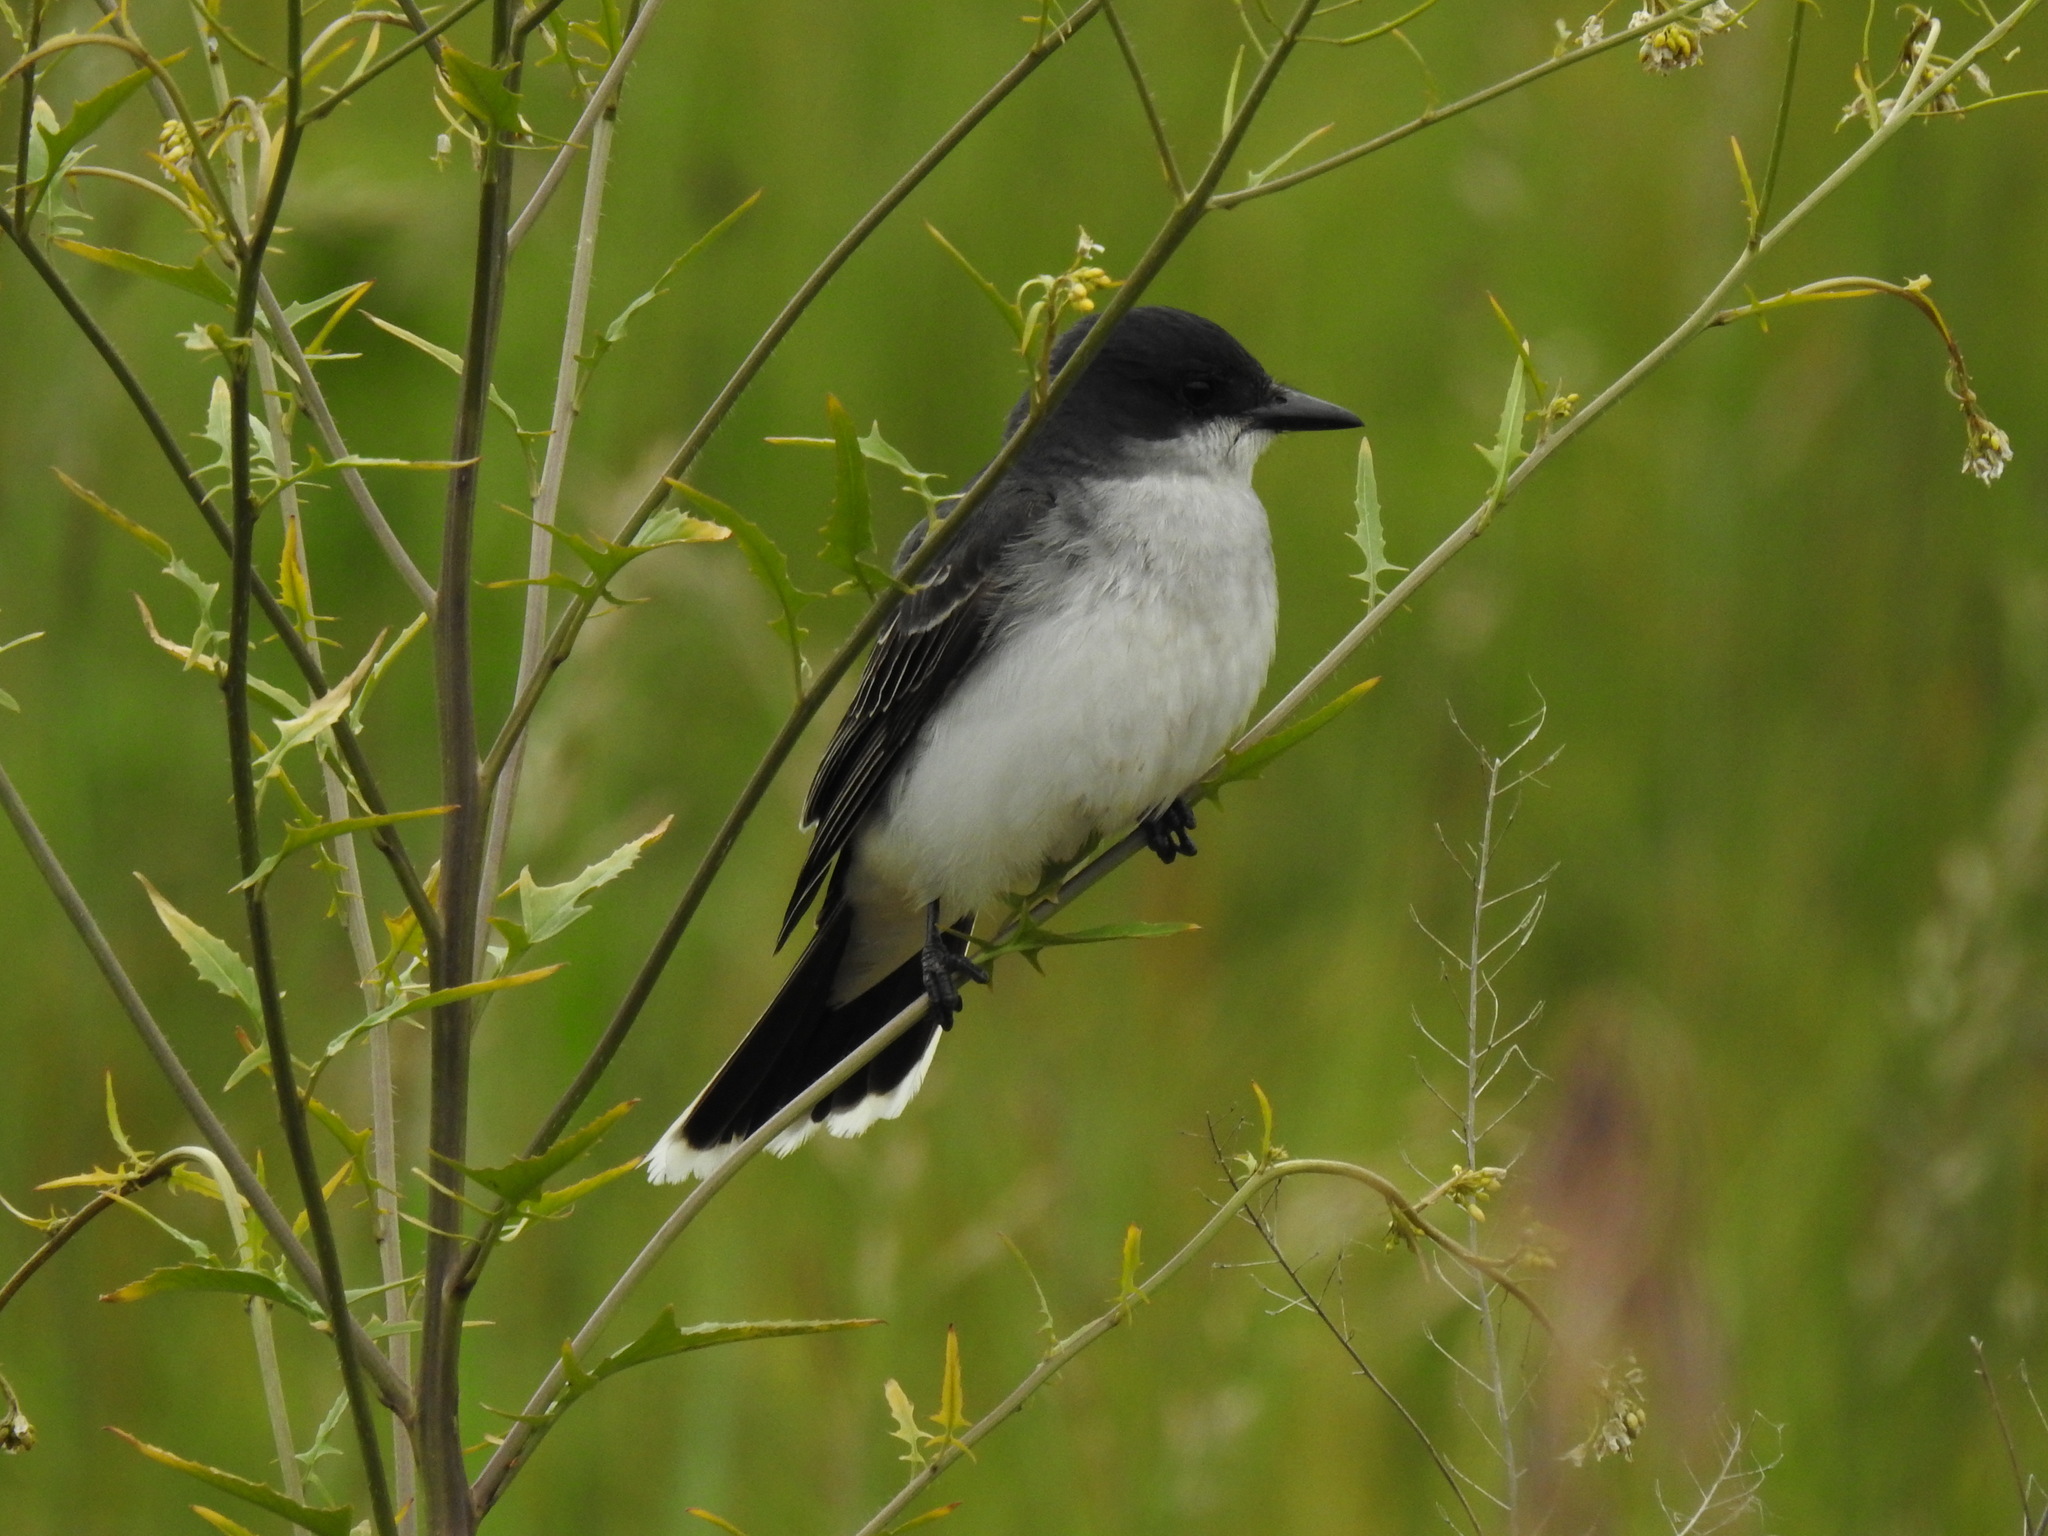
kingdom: Animalia
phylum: Chordata
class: Aves
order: Passeriformes
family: Tyrannidae
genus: Tyrannus
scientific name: Tyrannus tyrannus
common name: Eastern kingbird
